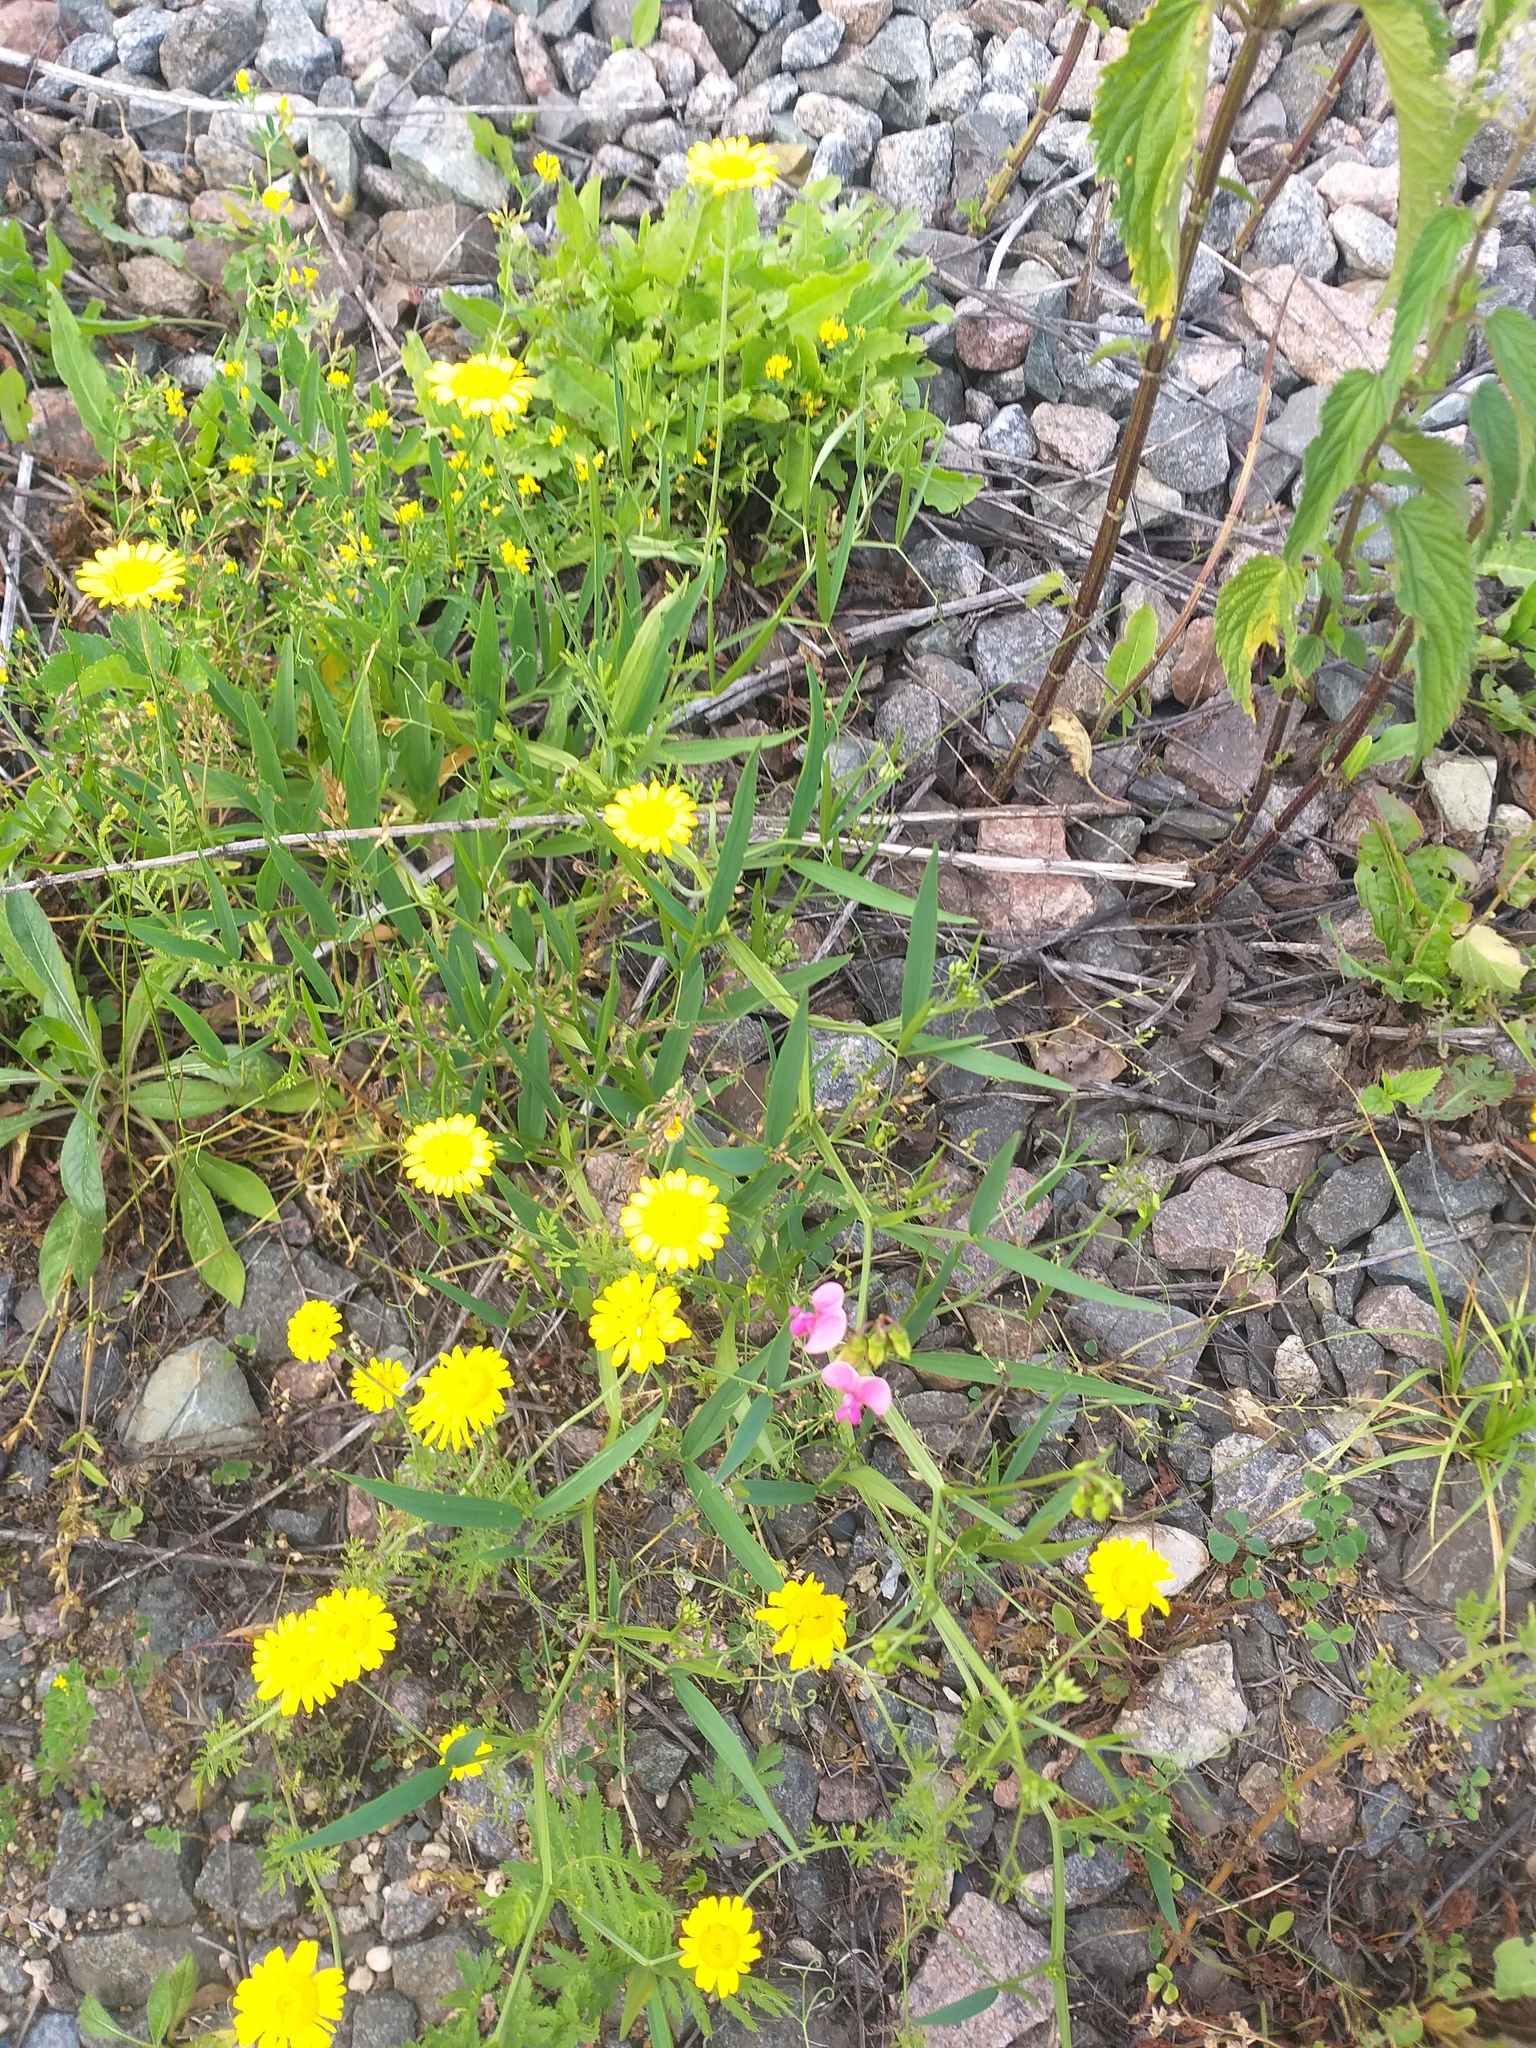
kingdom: Plantae
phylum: Tracheophyta
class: Magnoliopsida
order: Fabales
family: Fabaceae
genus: Lathyrus
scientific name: Lathyrus sylvestris
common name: Flat pea
